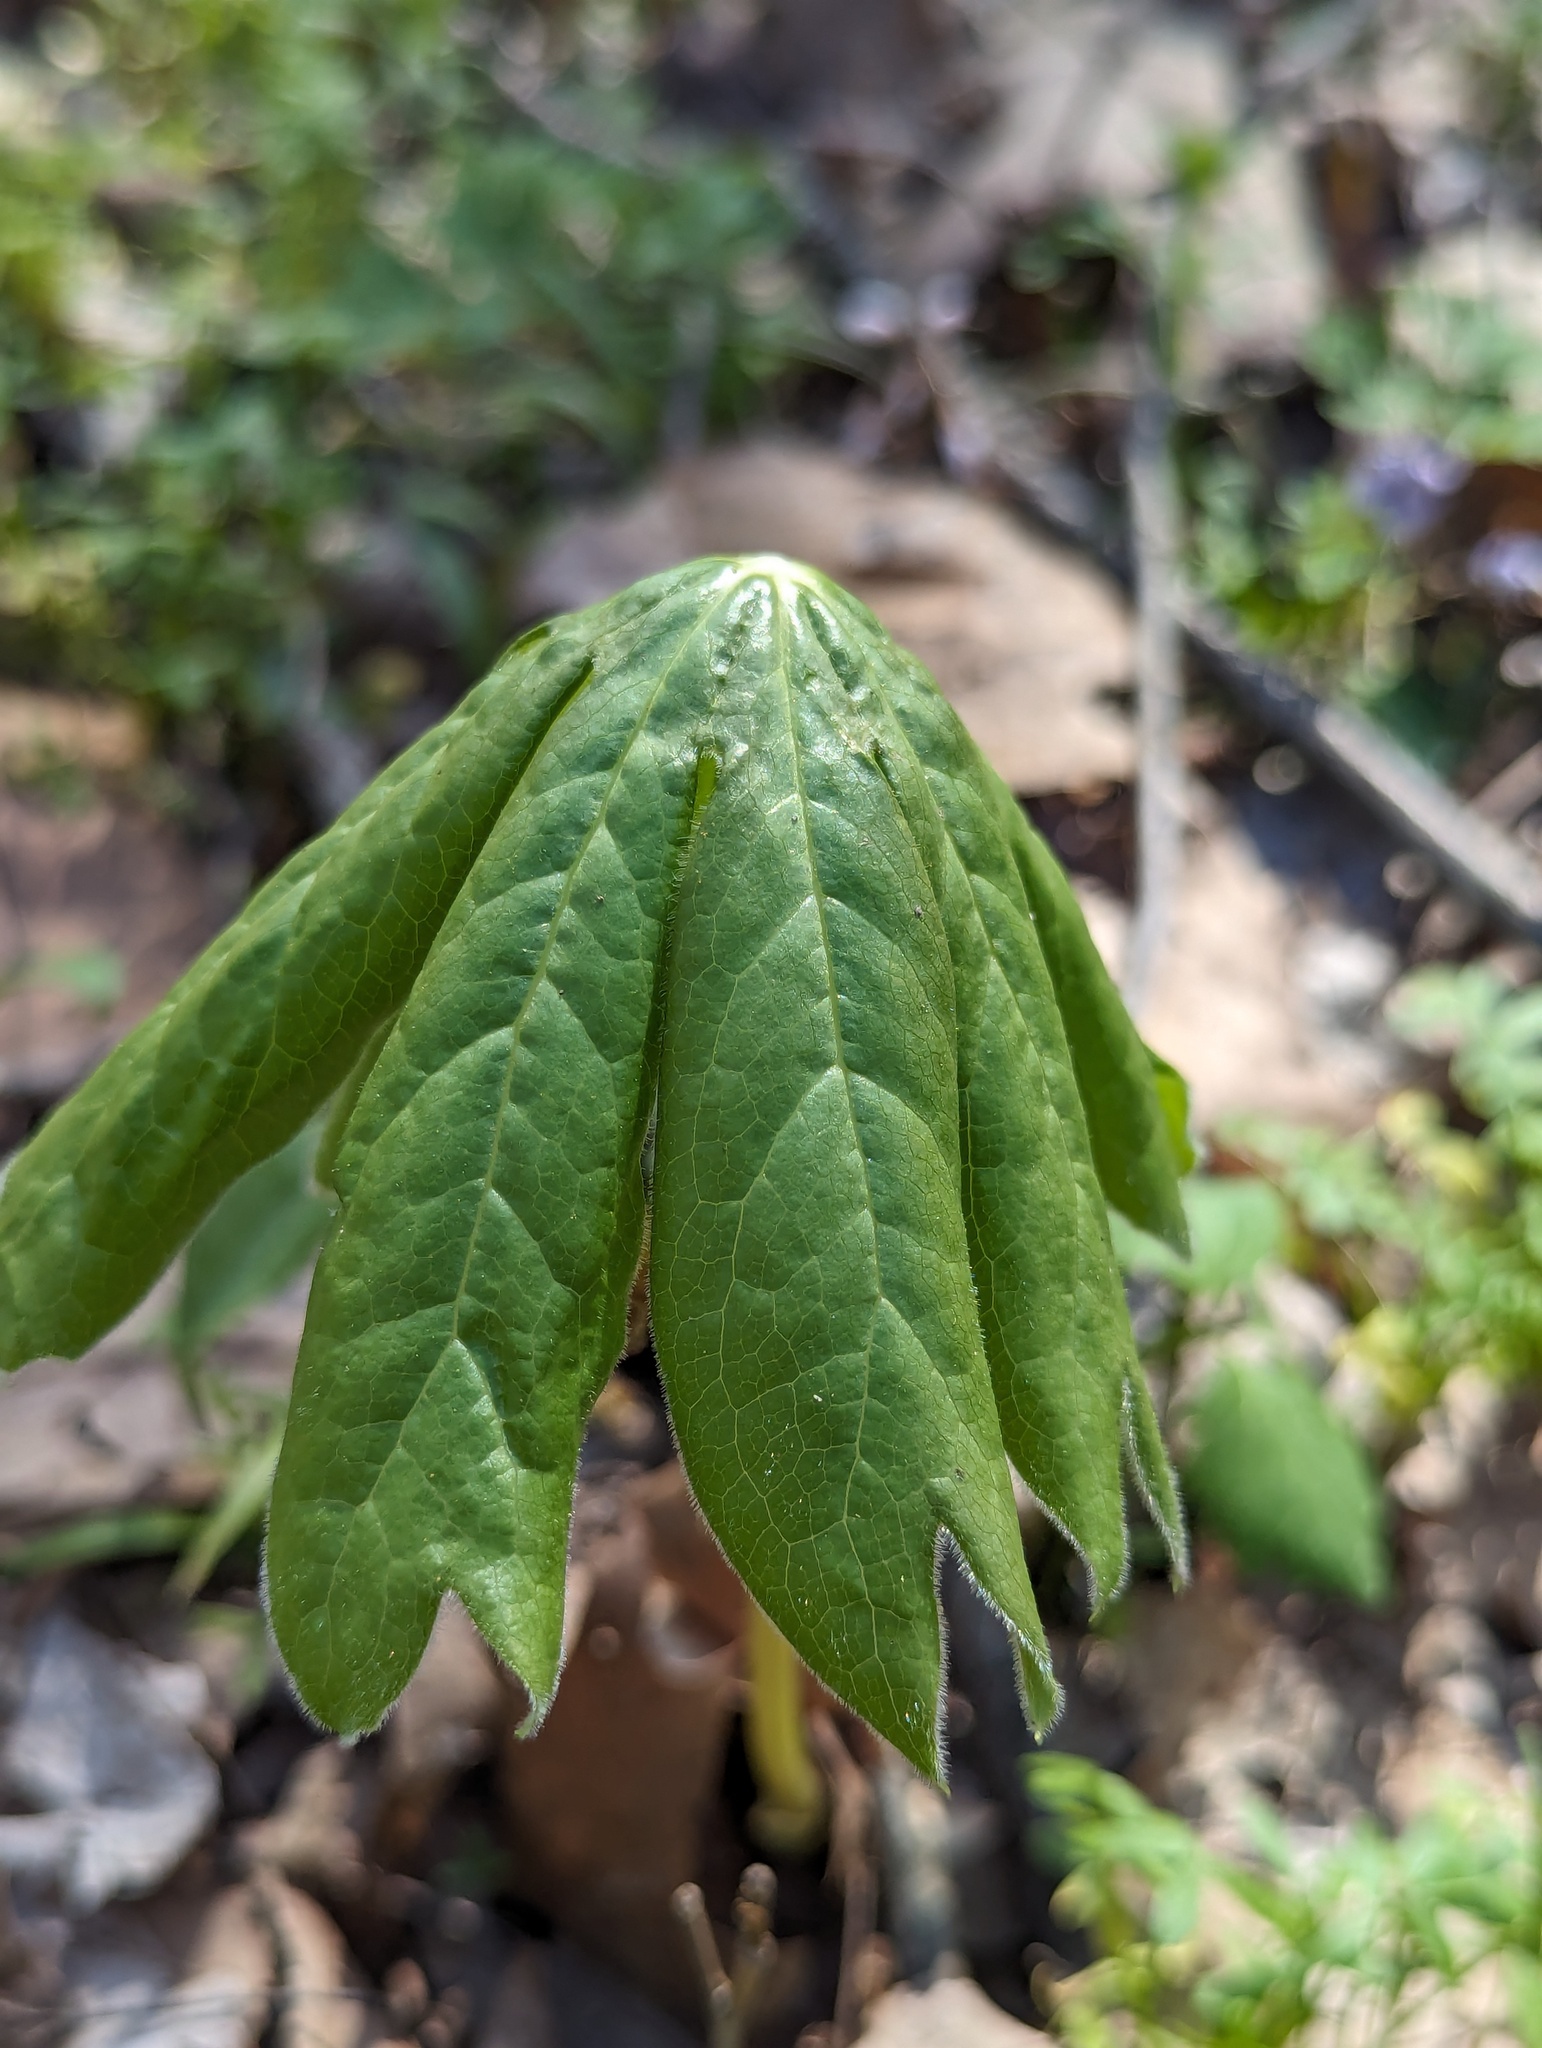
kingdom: Plantae
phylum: Tracheophyta
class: Magnoliopsida
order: Ranunculales
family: Berberidaceae
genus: Podophyllum
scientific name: Podophyllum peltatum
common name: Wild mandrake
